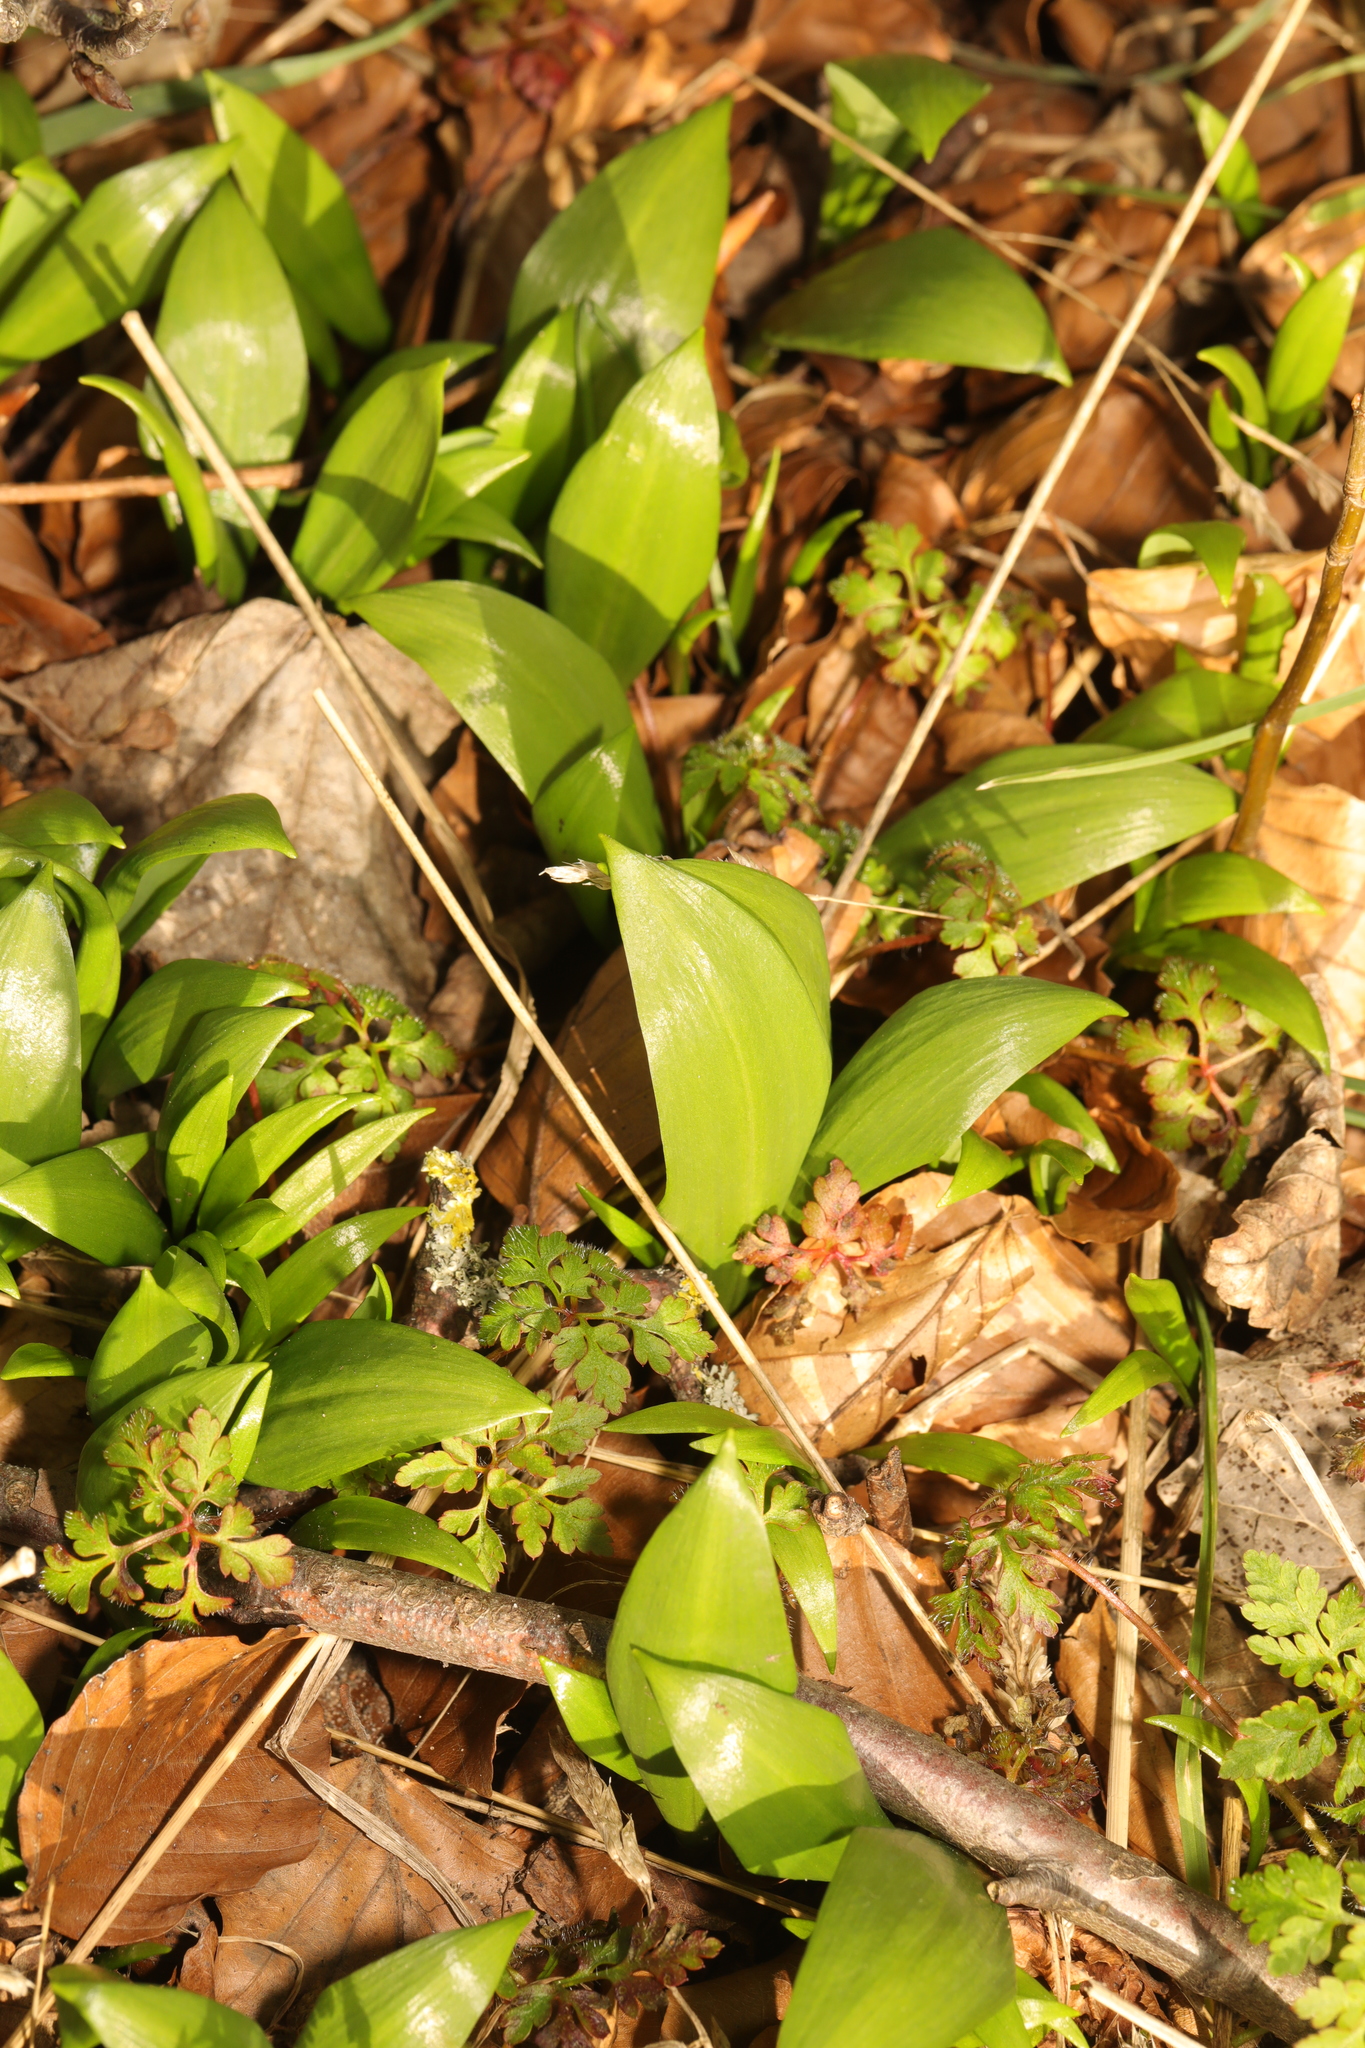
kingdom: Plantae
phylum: Tracheophyta
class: Liliopsida
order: Asparagales
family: Amaryllidaceae
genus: Allium
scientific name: Allium ursinum
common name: Ramsons
